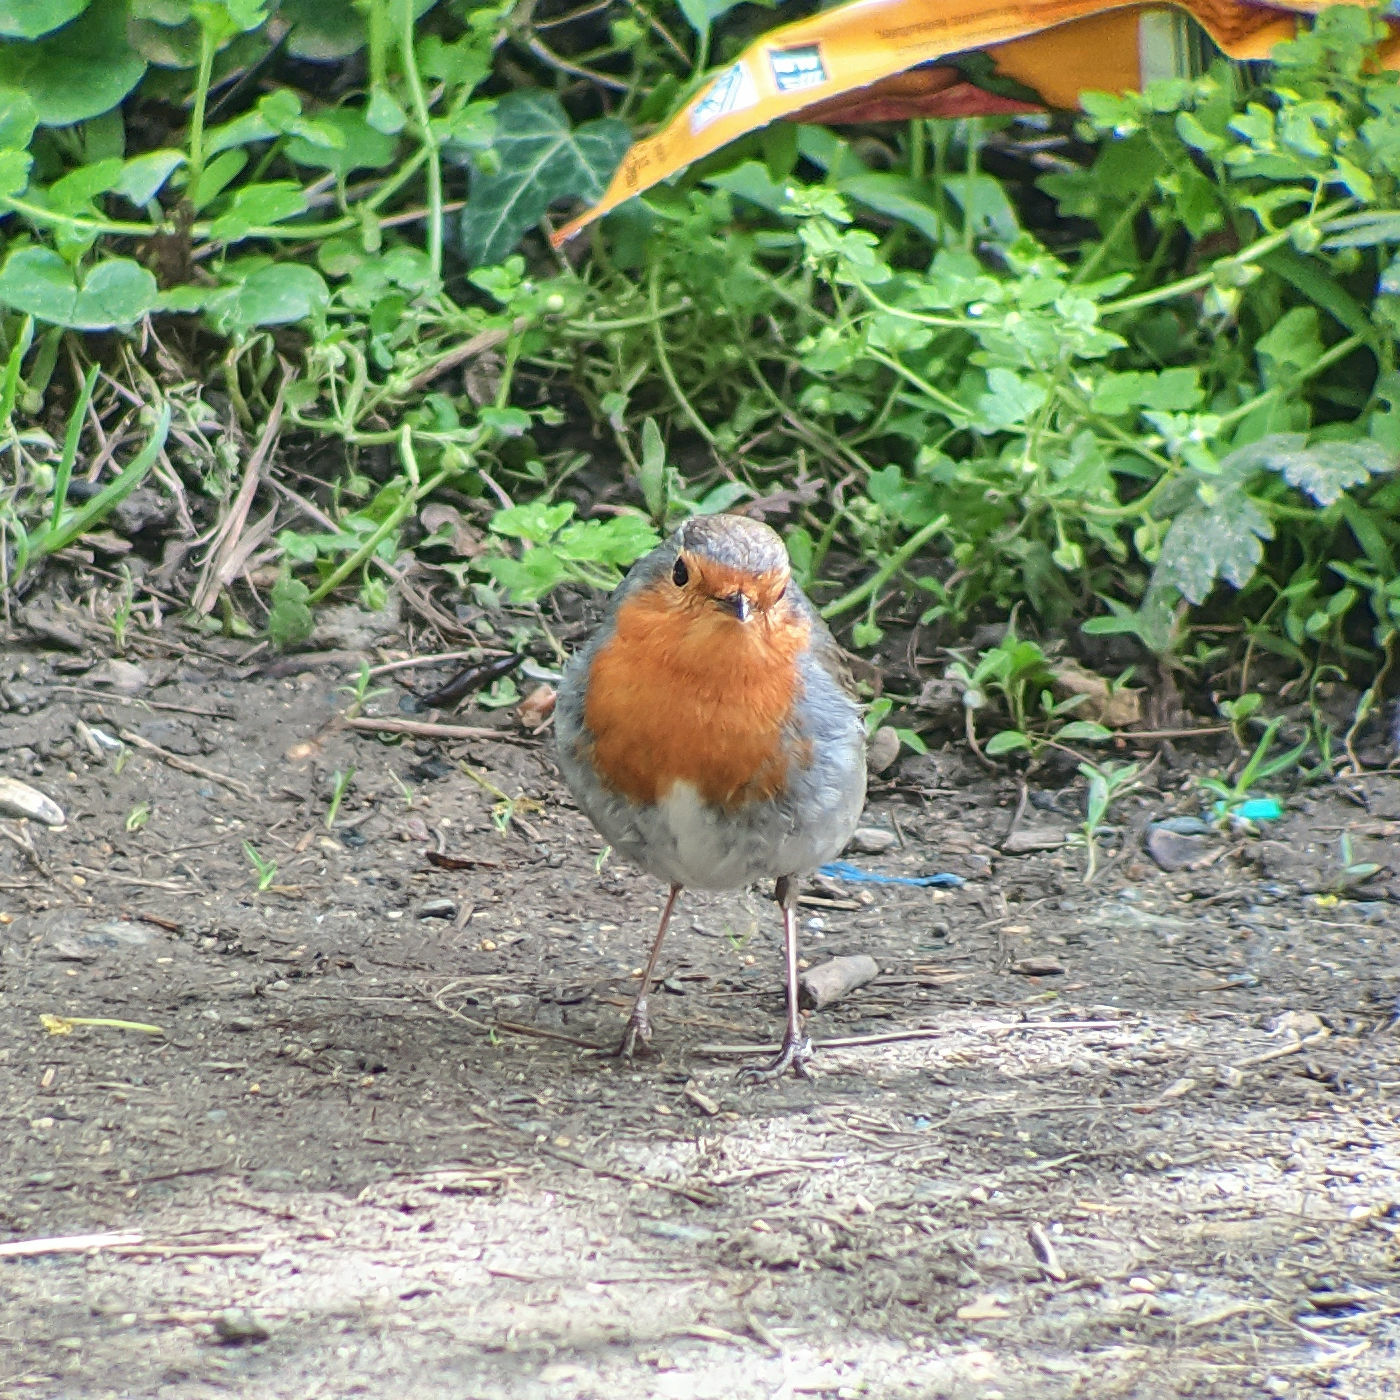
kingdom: Animalia
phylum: Chordata
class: Aves
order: Passeriformes
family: Muscicapidae
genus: Erithacus
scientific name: Erithacus rubecula
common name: European robin
